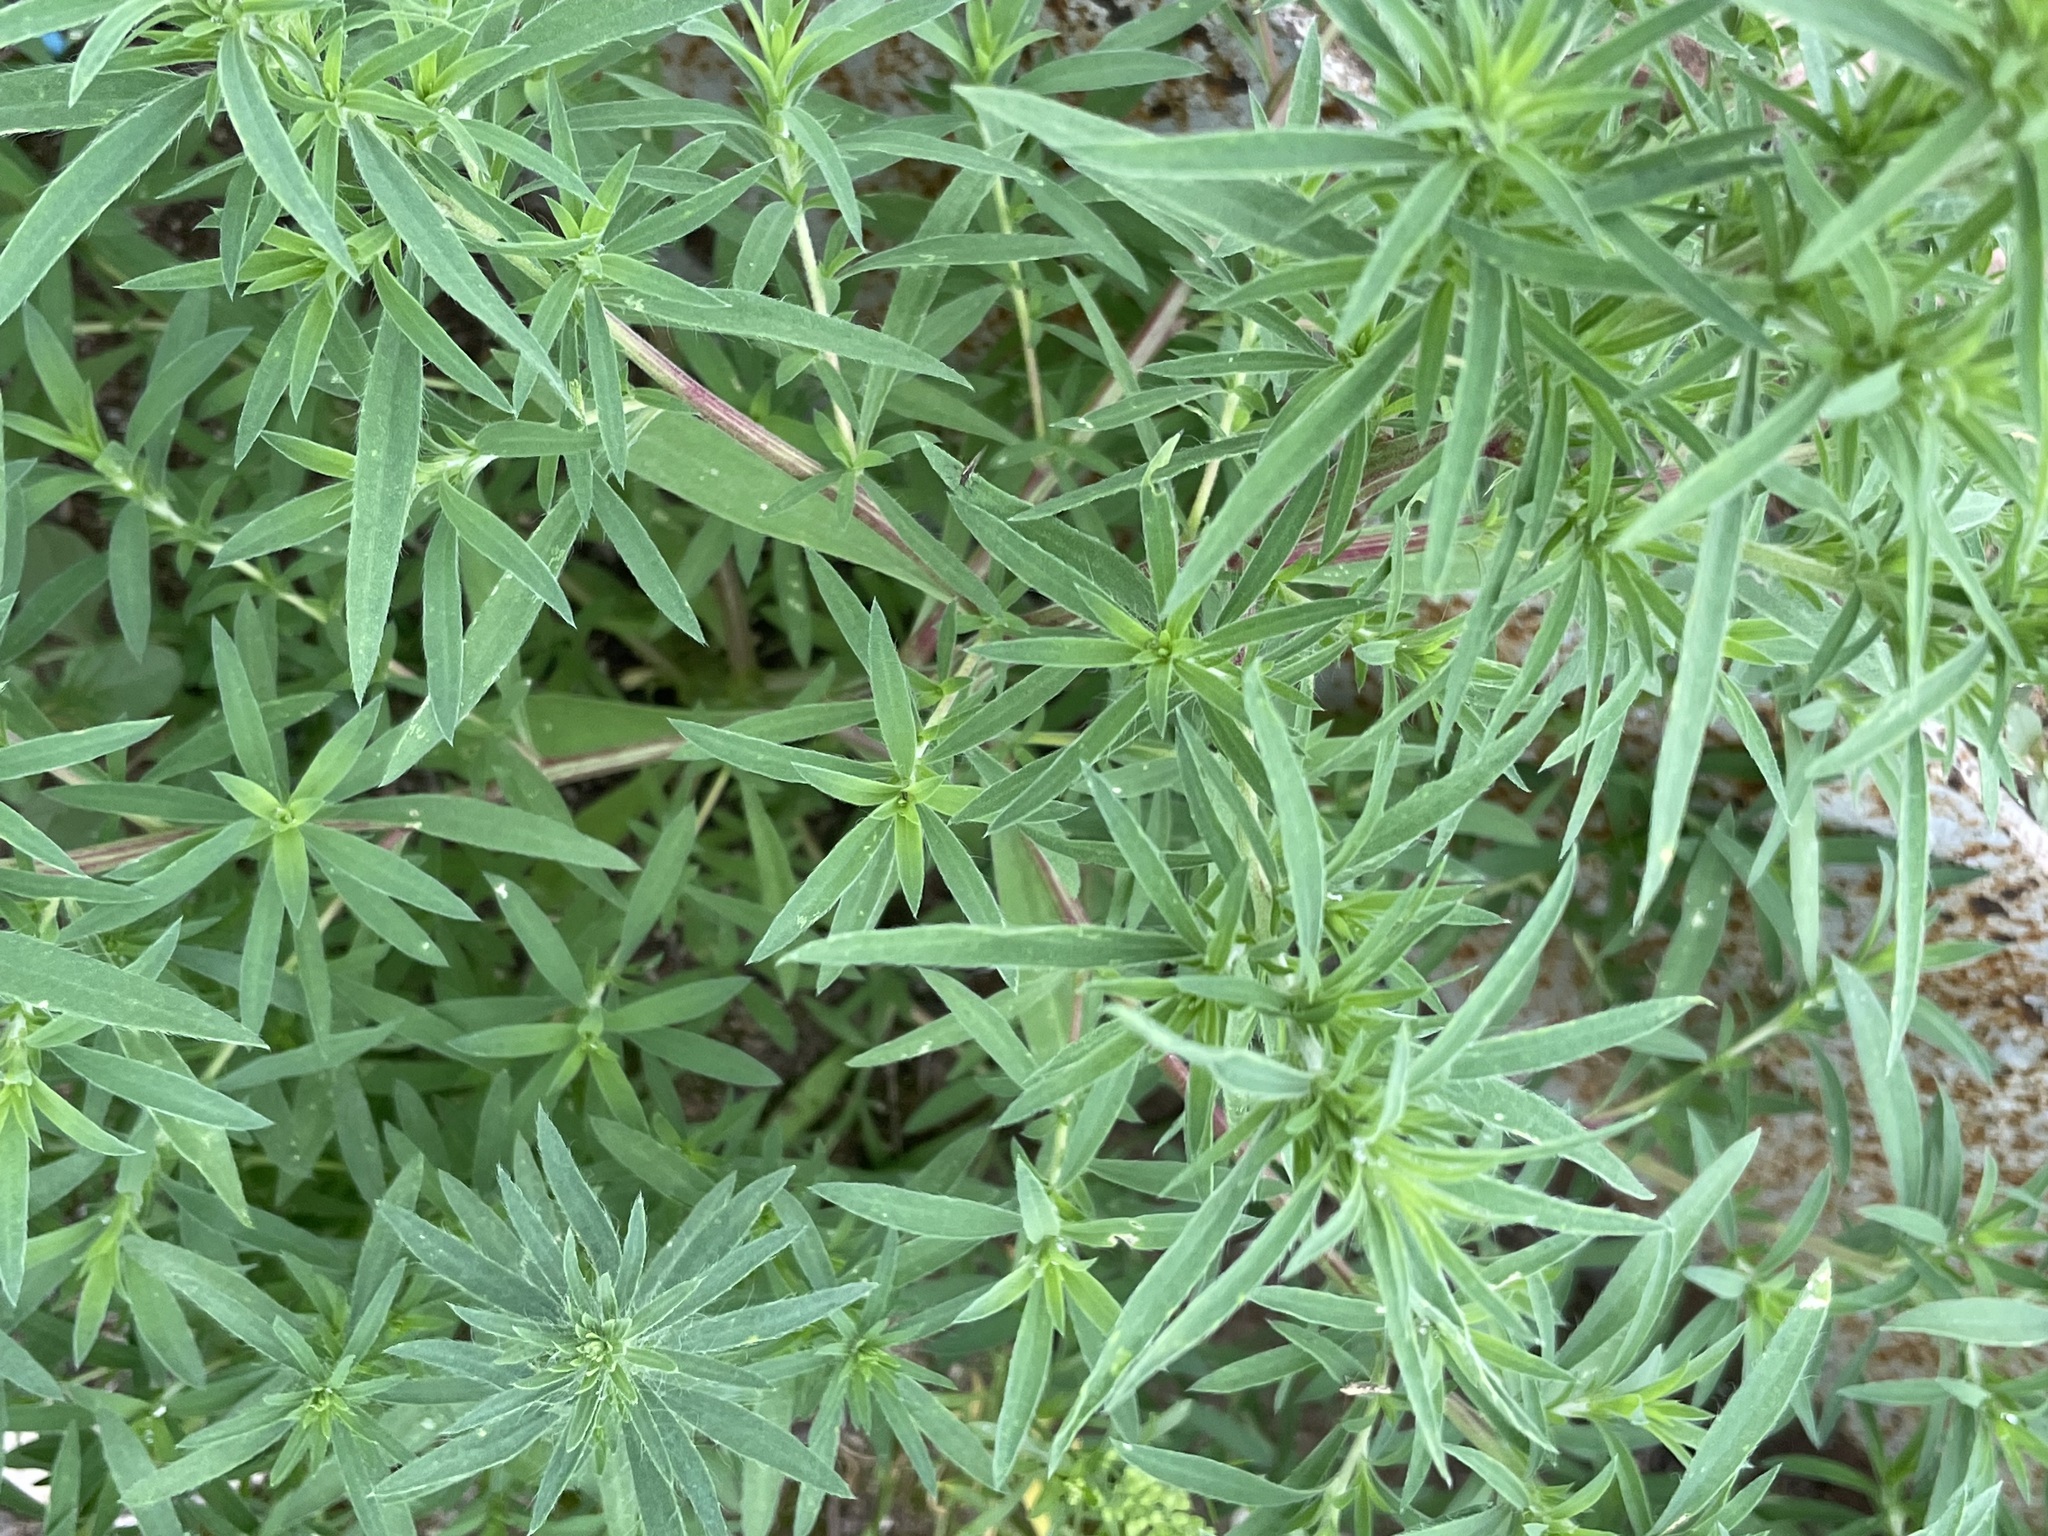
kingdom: Plantae
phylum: Tracheophyta
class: Magnoliopsida
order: Caryophyllales
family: Amaranthaceae
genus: Bassia
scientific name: Bassia scoparia
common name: Belvedere
